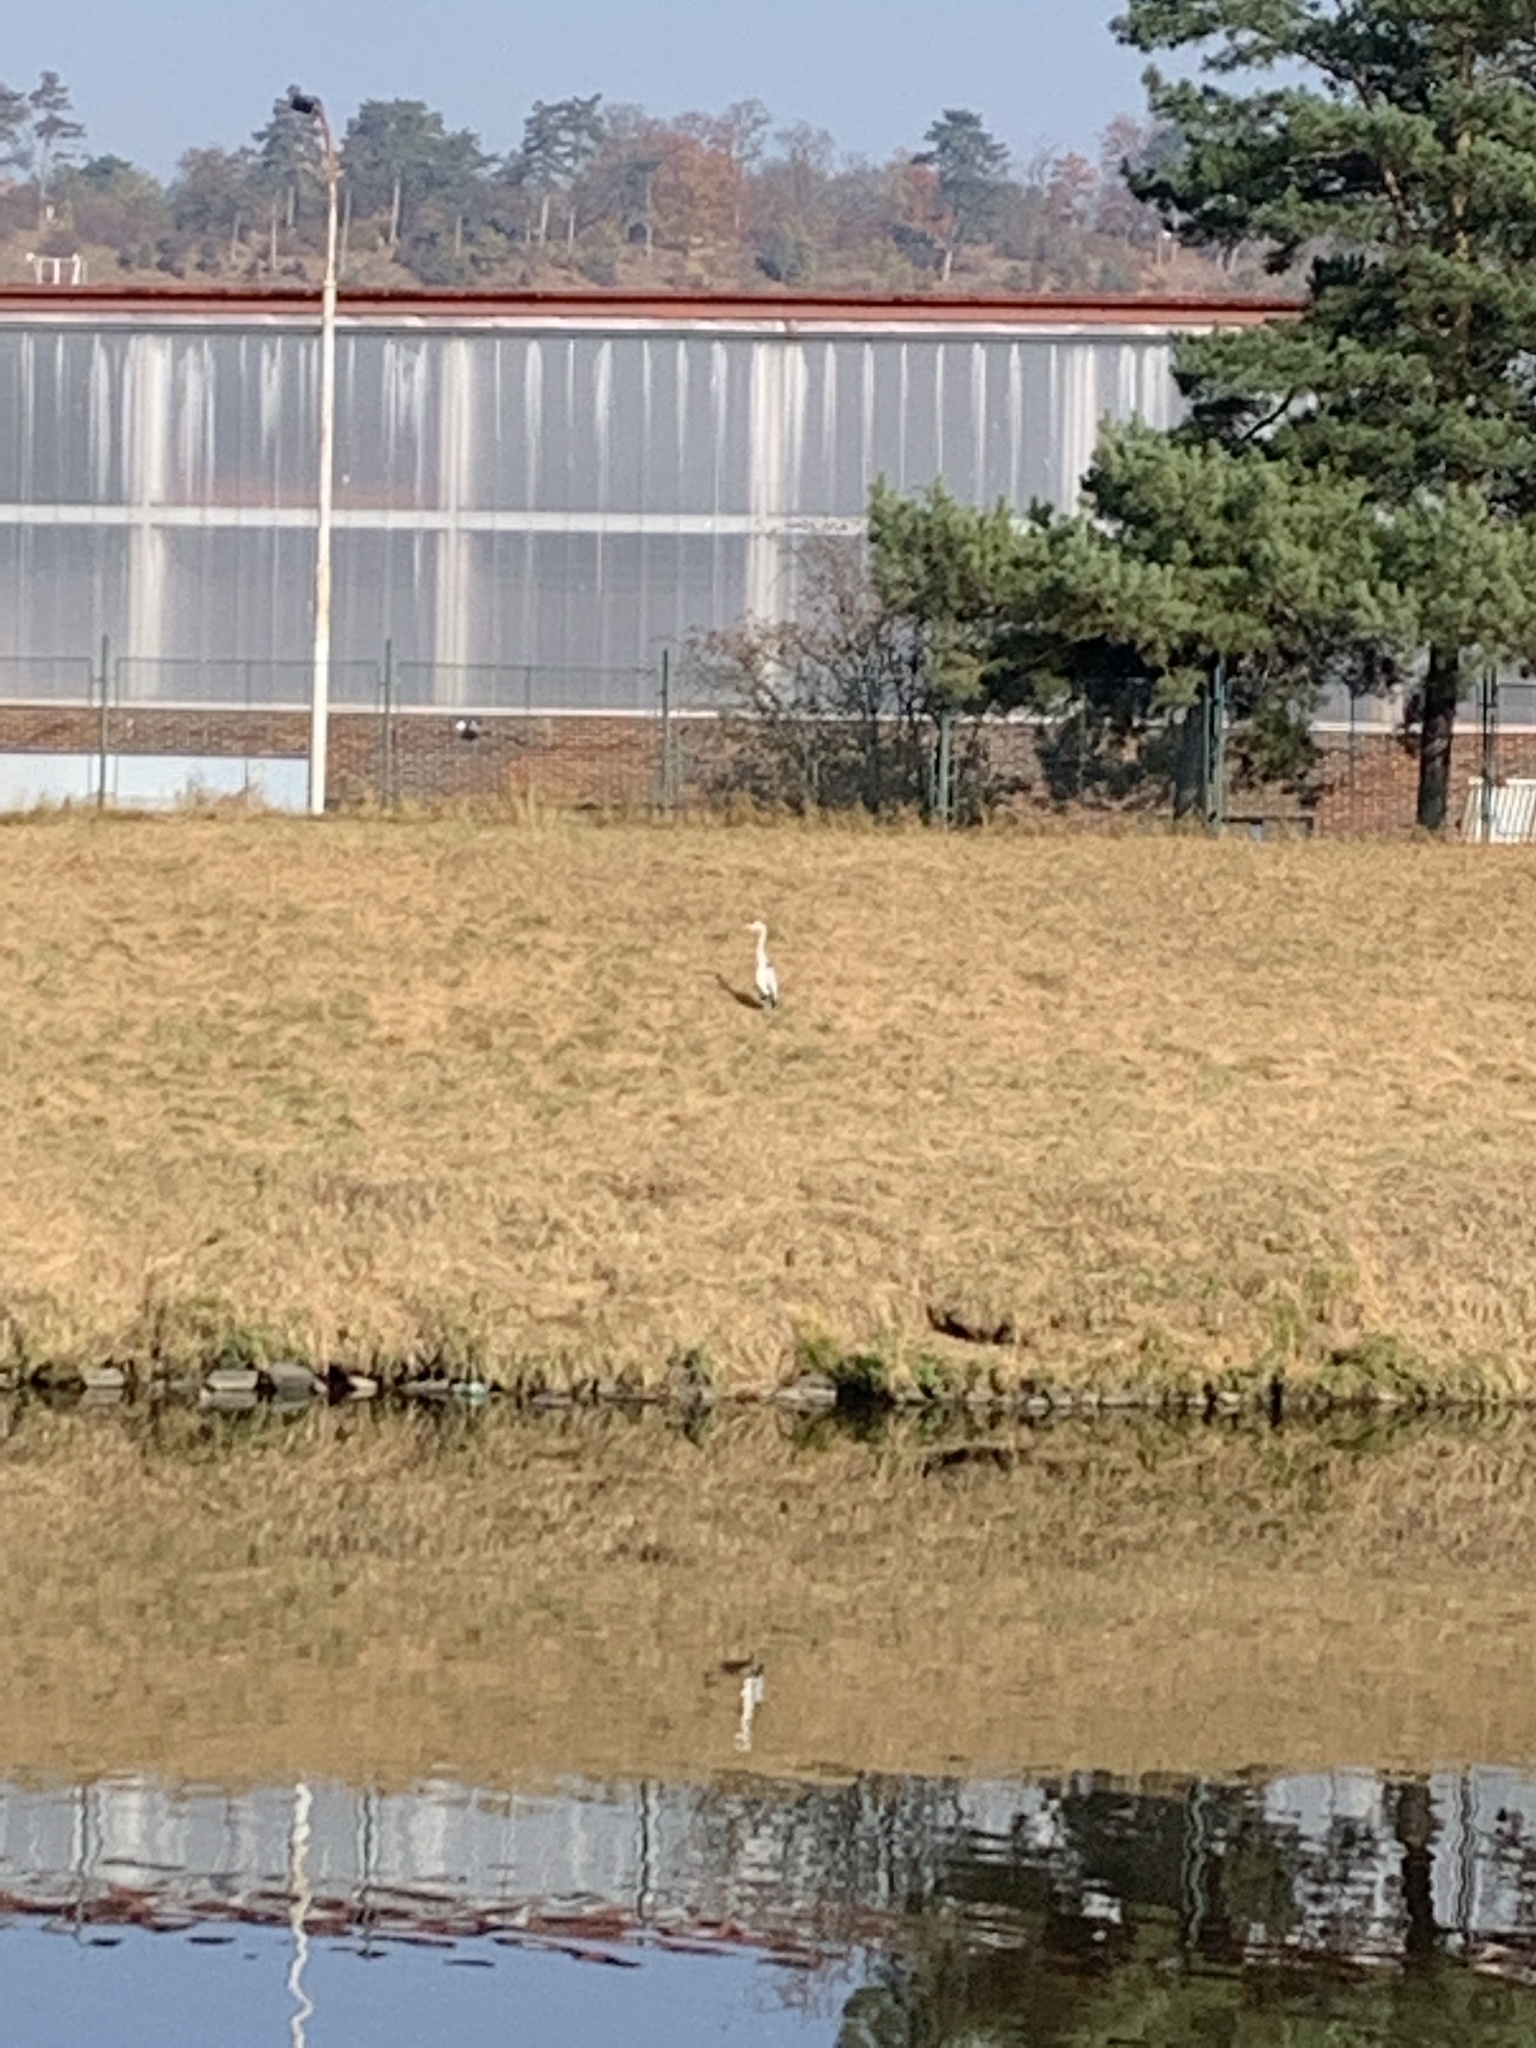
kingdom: Animalia
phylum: Chordata
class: Aves
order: Pelecaniformes
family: Ardeidae
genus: Ardea
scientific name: Ardea cinerea
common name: Grey heron
